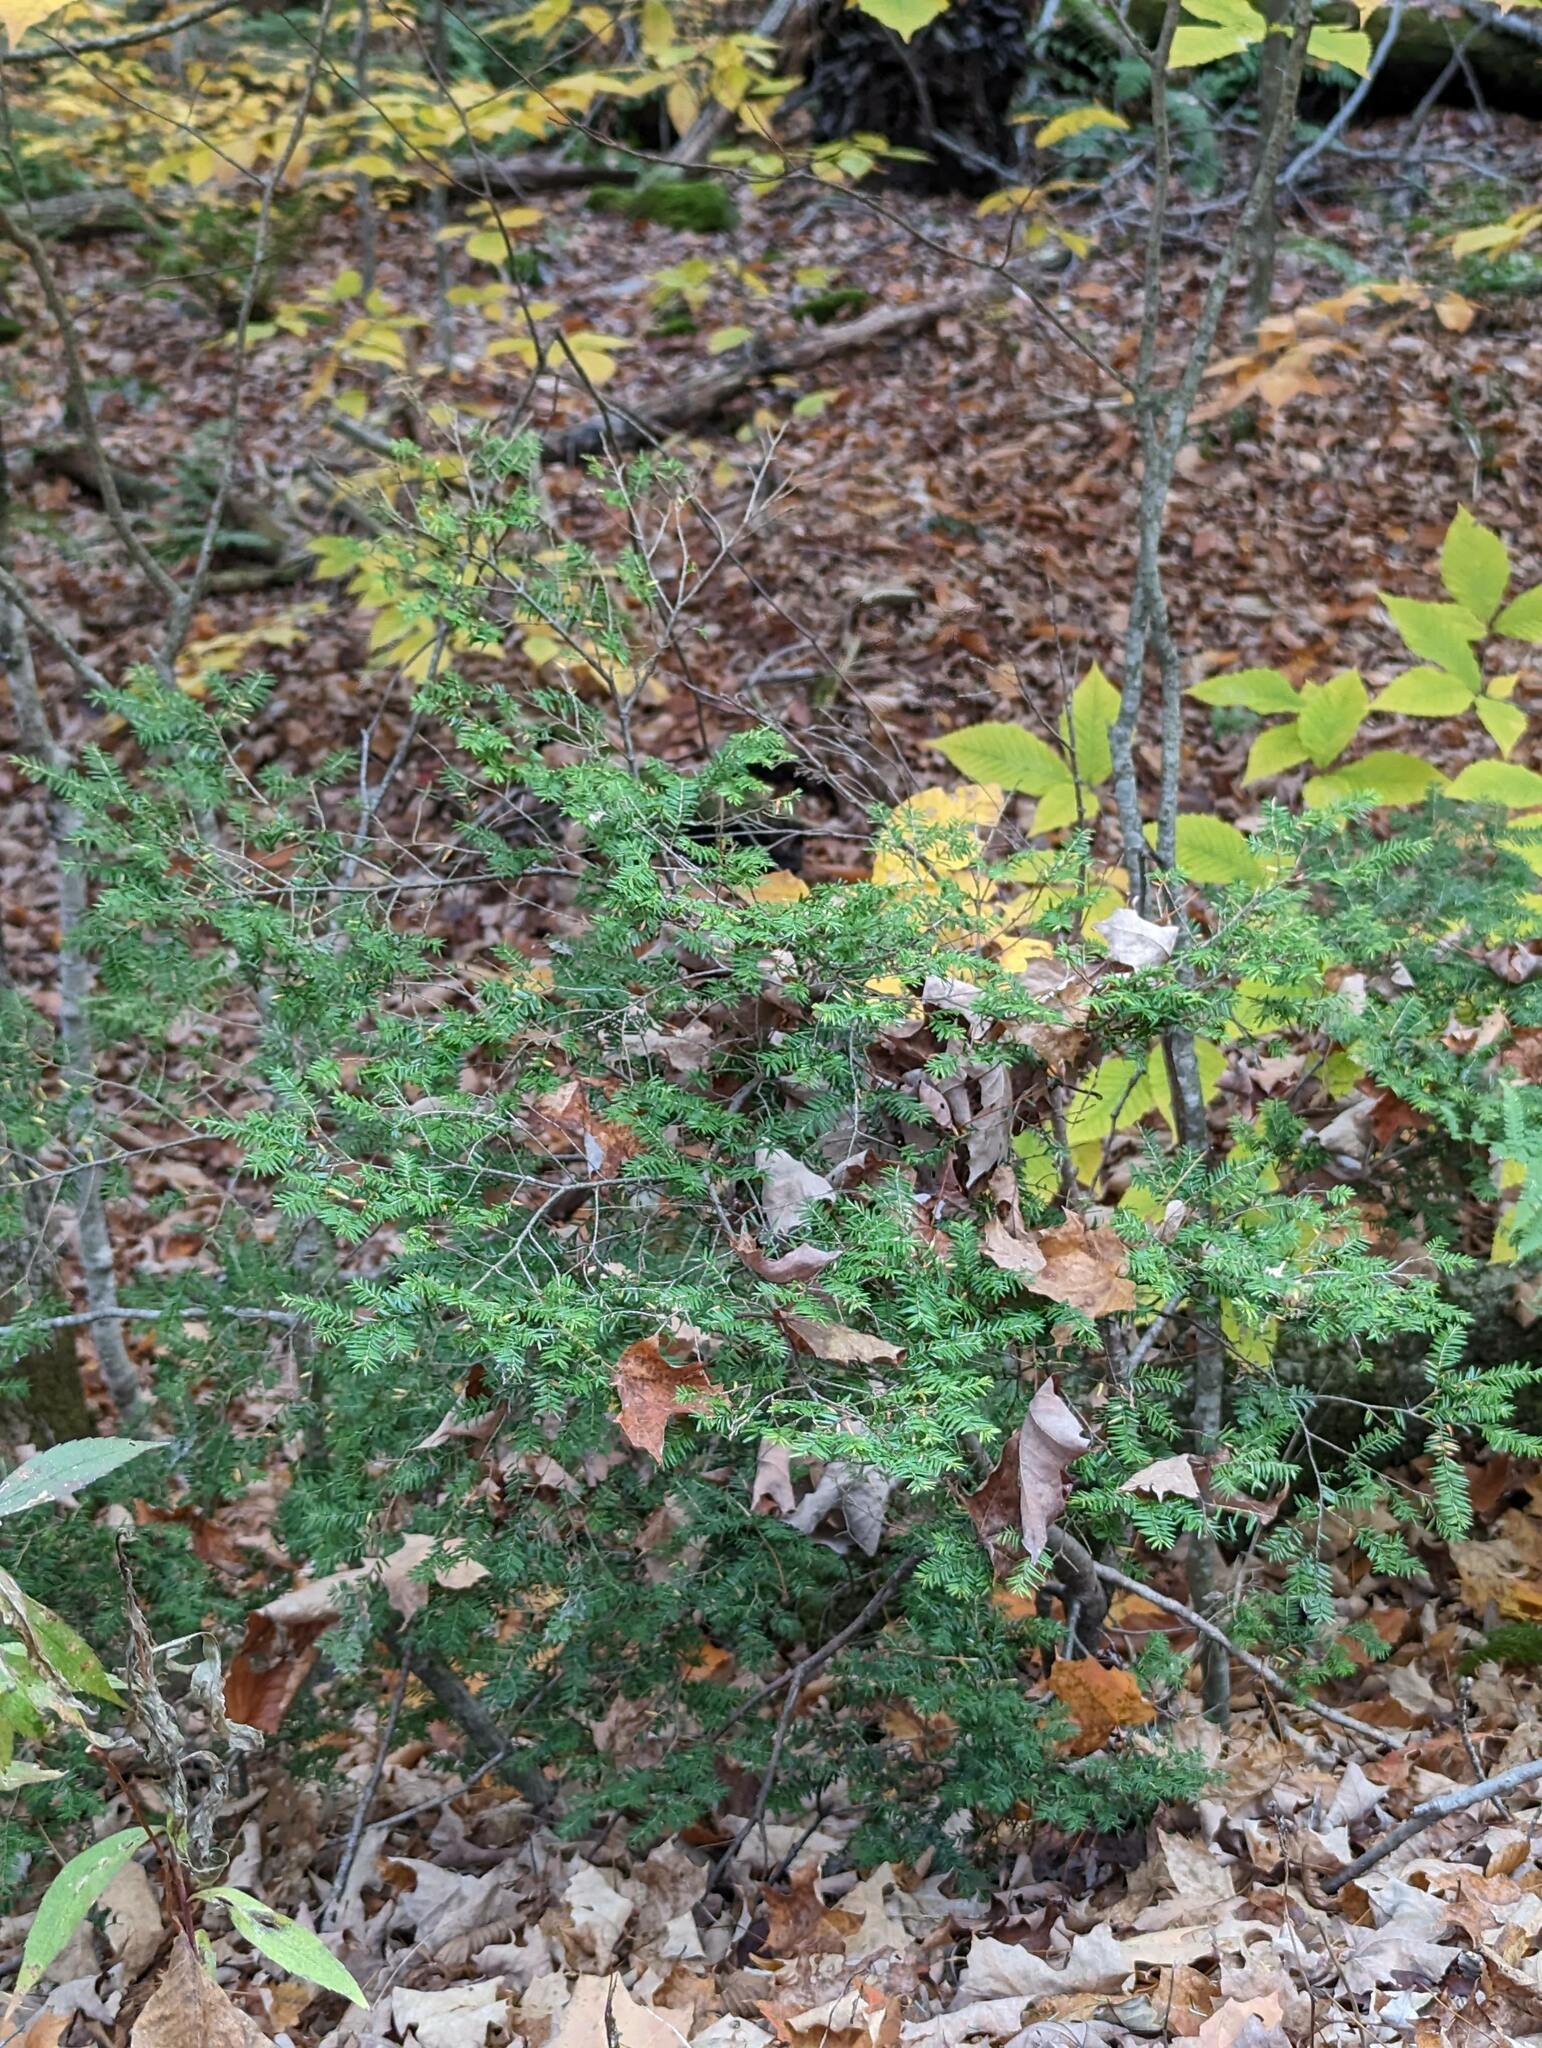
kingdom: Plantae
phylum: Tracheophyta
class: Pinopsida
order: Pinales
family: Pinaceae
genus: Tsuga
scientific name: Tsuga canadensis
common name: Eastern hemlock
